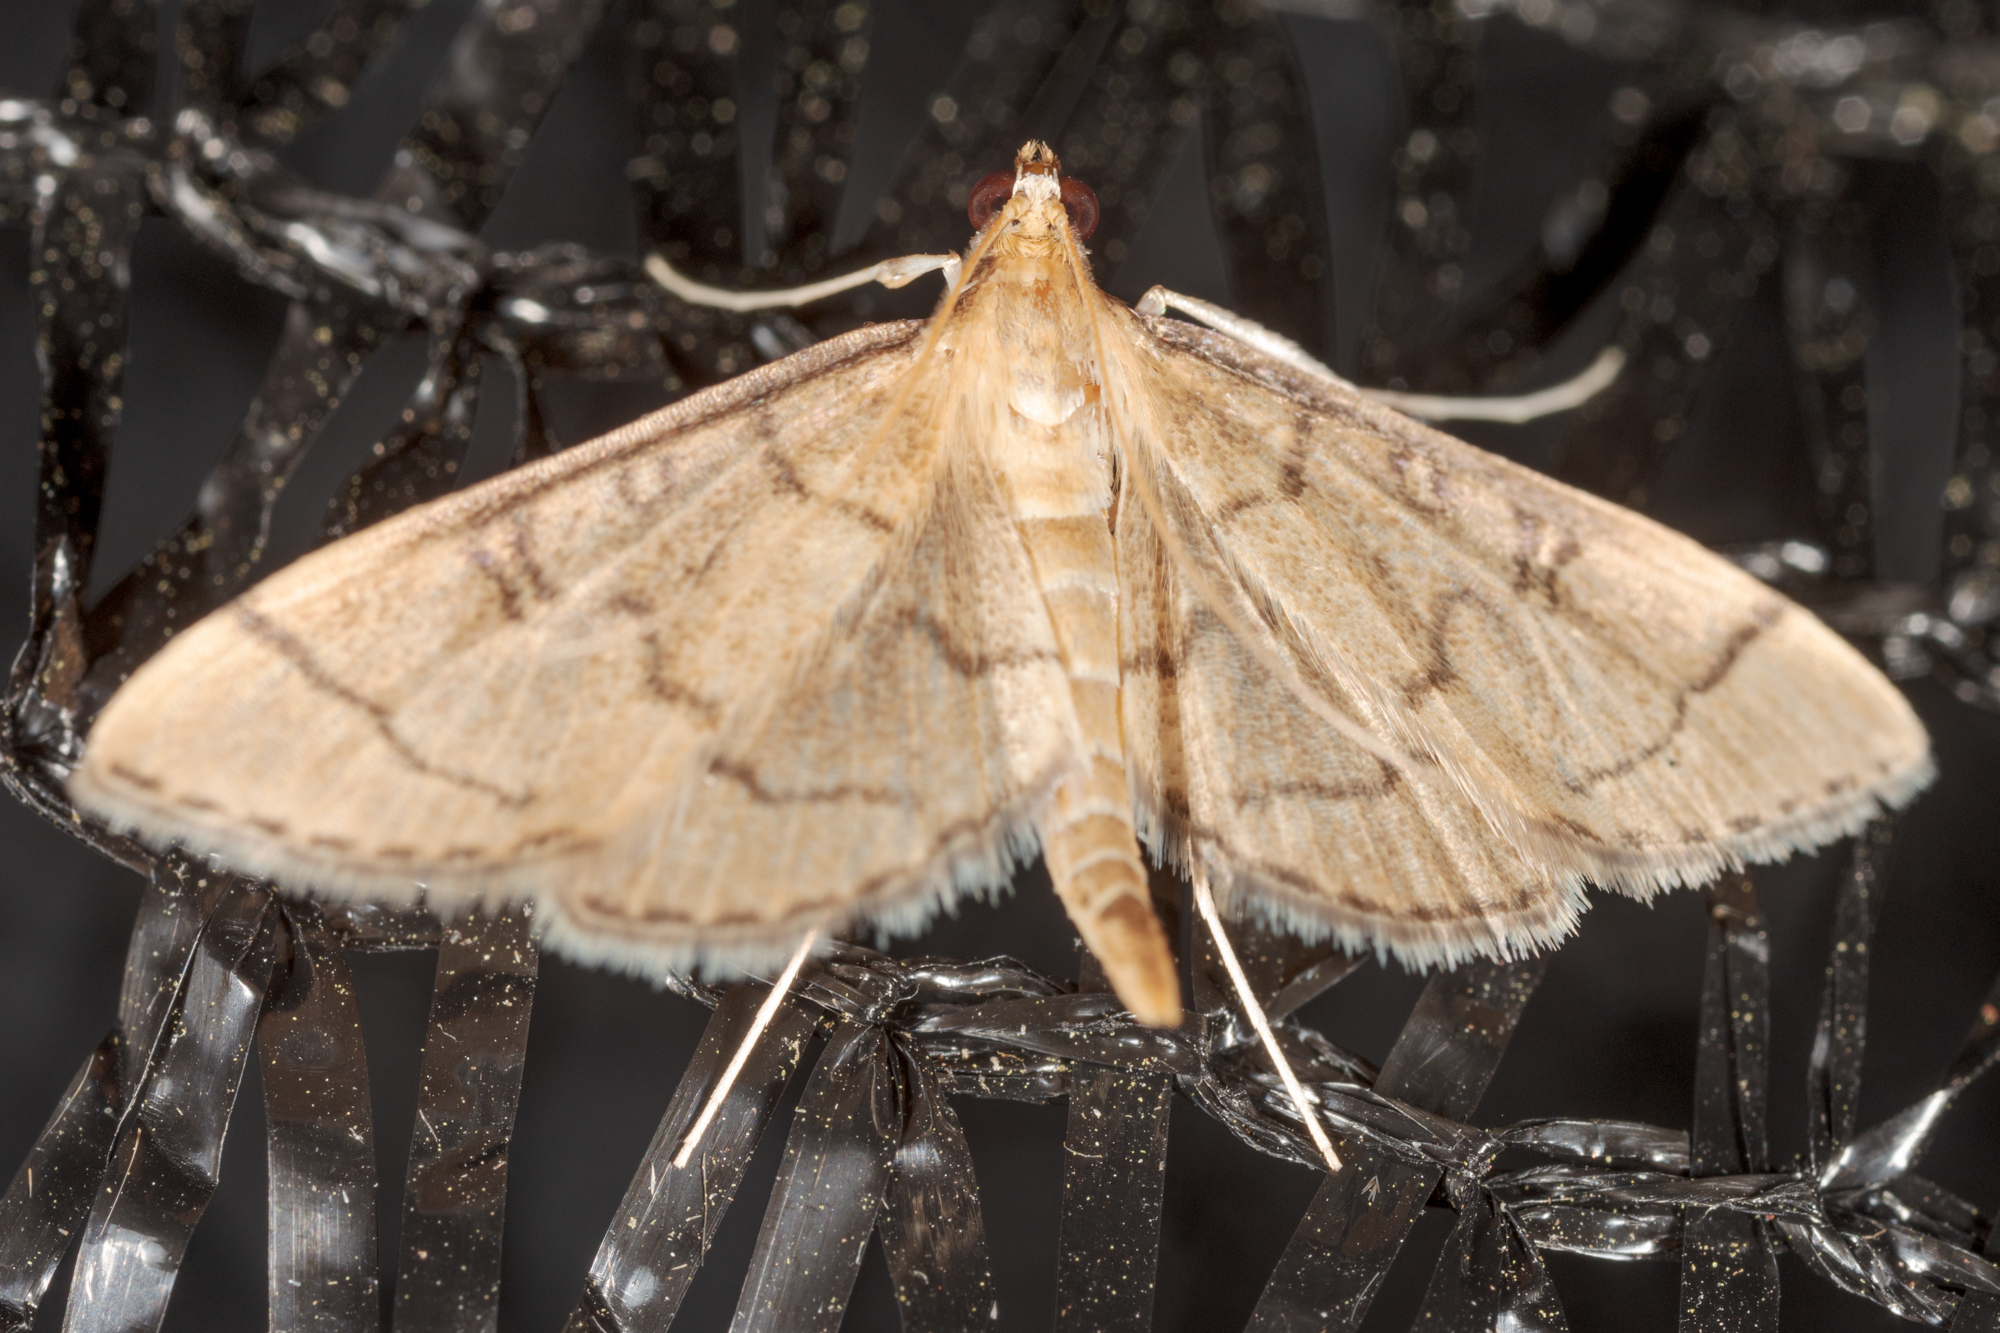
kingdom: Animalia
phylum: Arthropoda
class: Insecta
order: Lepidoptera
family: Crambidae
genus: Lamprosema
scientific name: Lamprosema Blepharomastix ranalis
